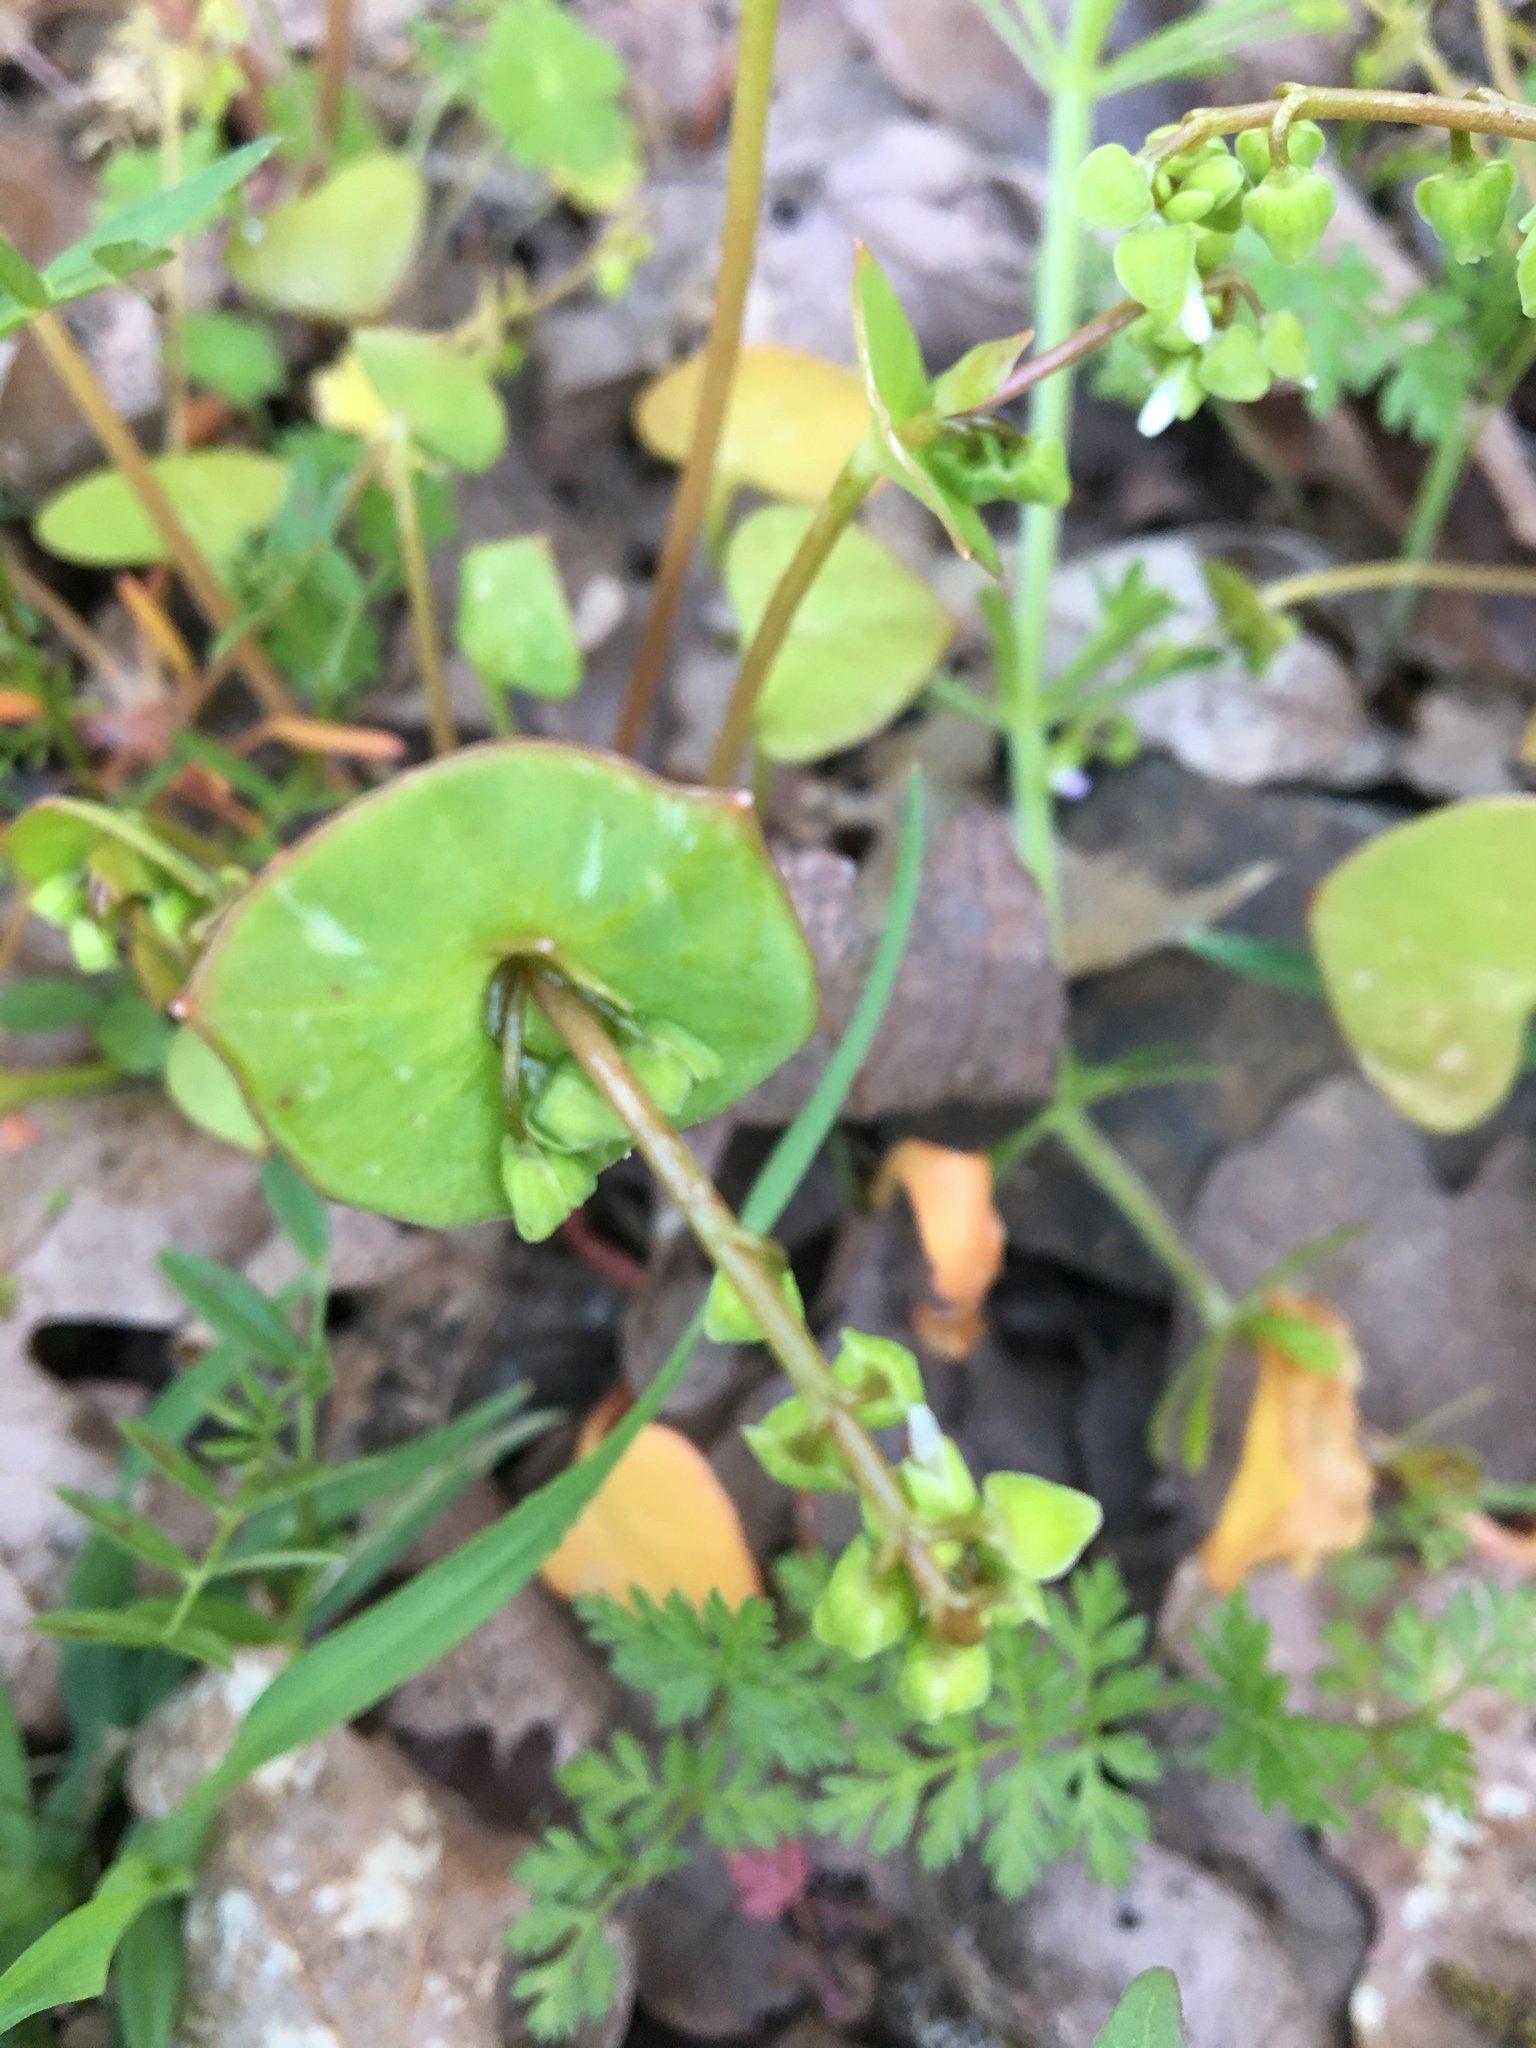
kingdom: Plantae
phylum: Tracheophyta
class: Magnoliopsida
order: Caryophyllales
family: Montiaceae
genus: Claytonia
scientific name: Claytonia perfoliata
